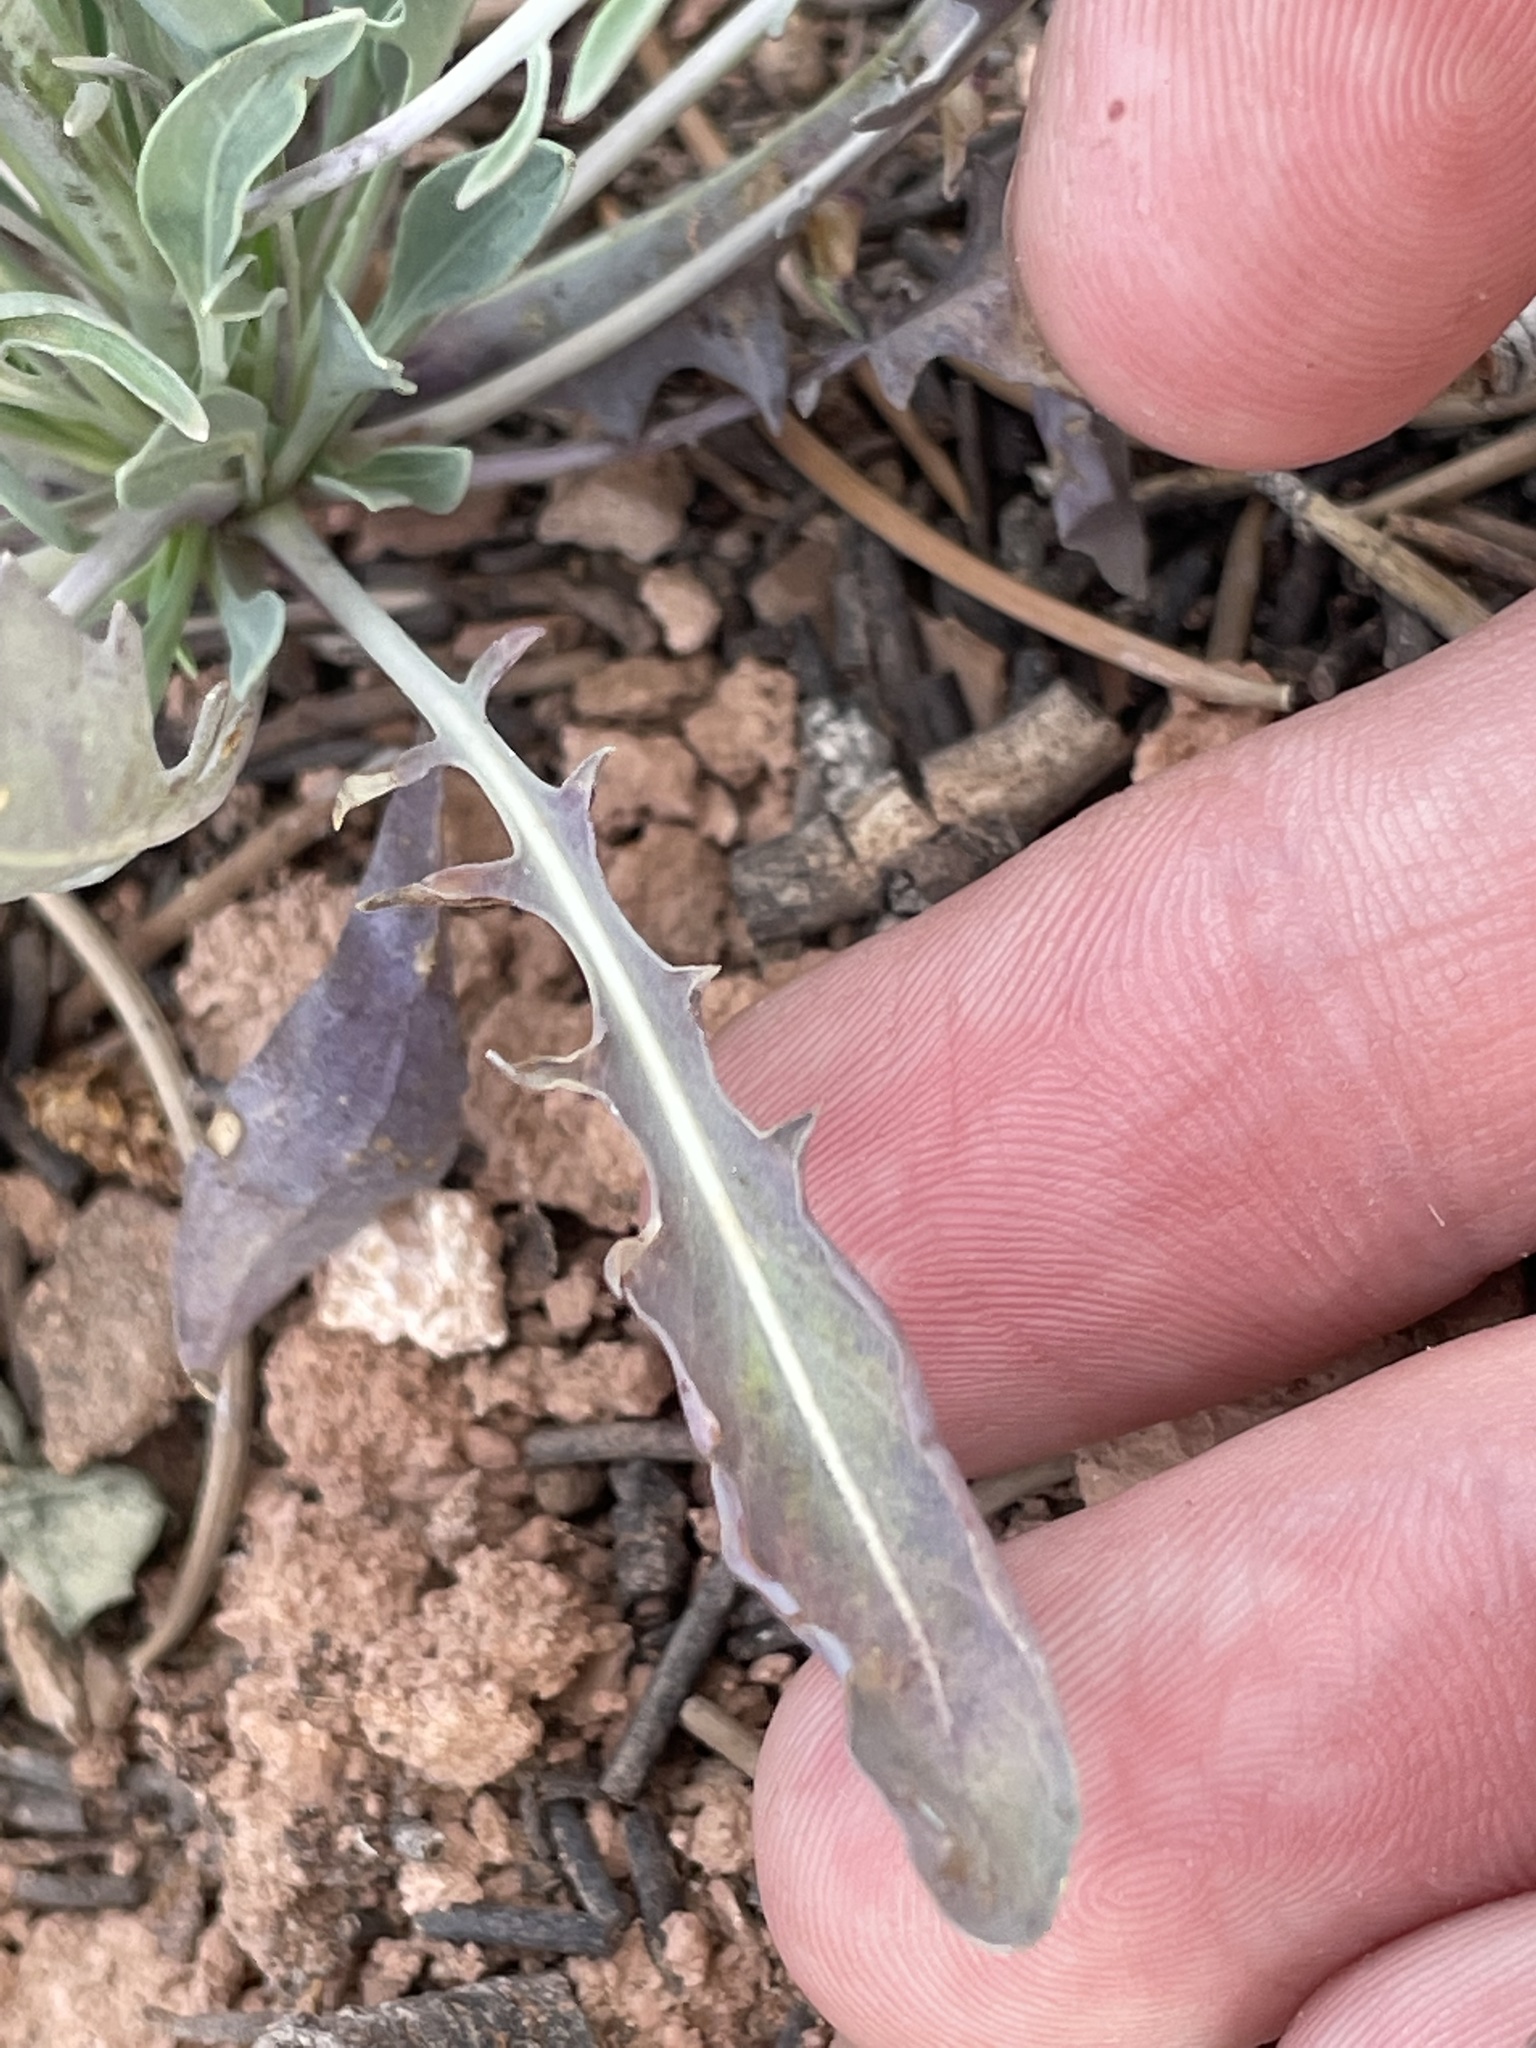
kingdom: Plantae
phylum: Tracheophyta
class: Magnoliopsida
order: Brassicales
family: Brassicaceae
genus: Streptanthus
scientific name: Streptanthus crassicaulis
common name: Thick-stem wild cabbage
